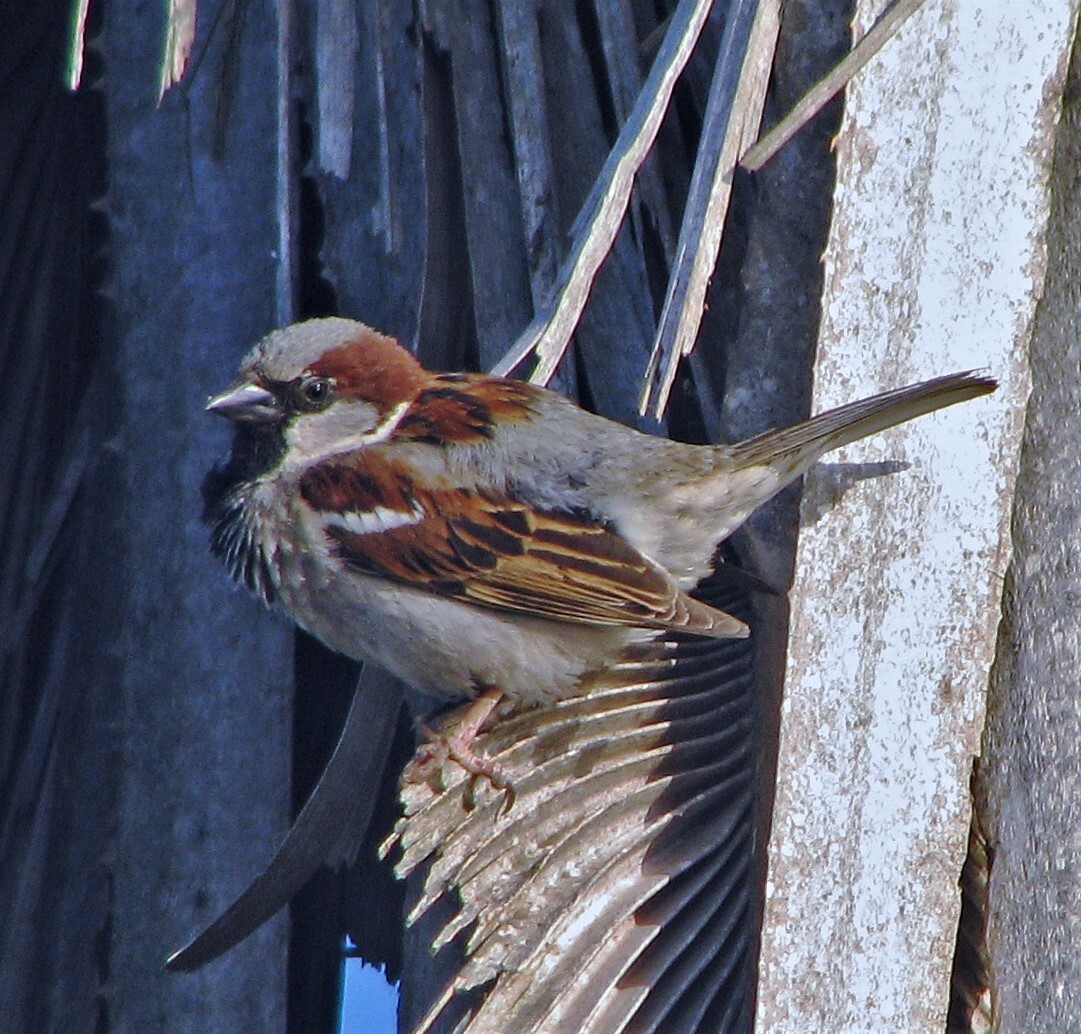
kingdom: Animalia
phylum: Chordata
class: Aves
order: Passeriformes
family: Passeridae
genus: Passer
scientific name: Passer domesticus
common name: House sparrow
